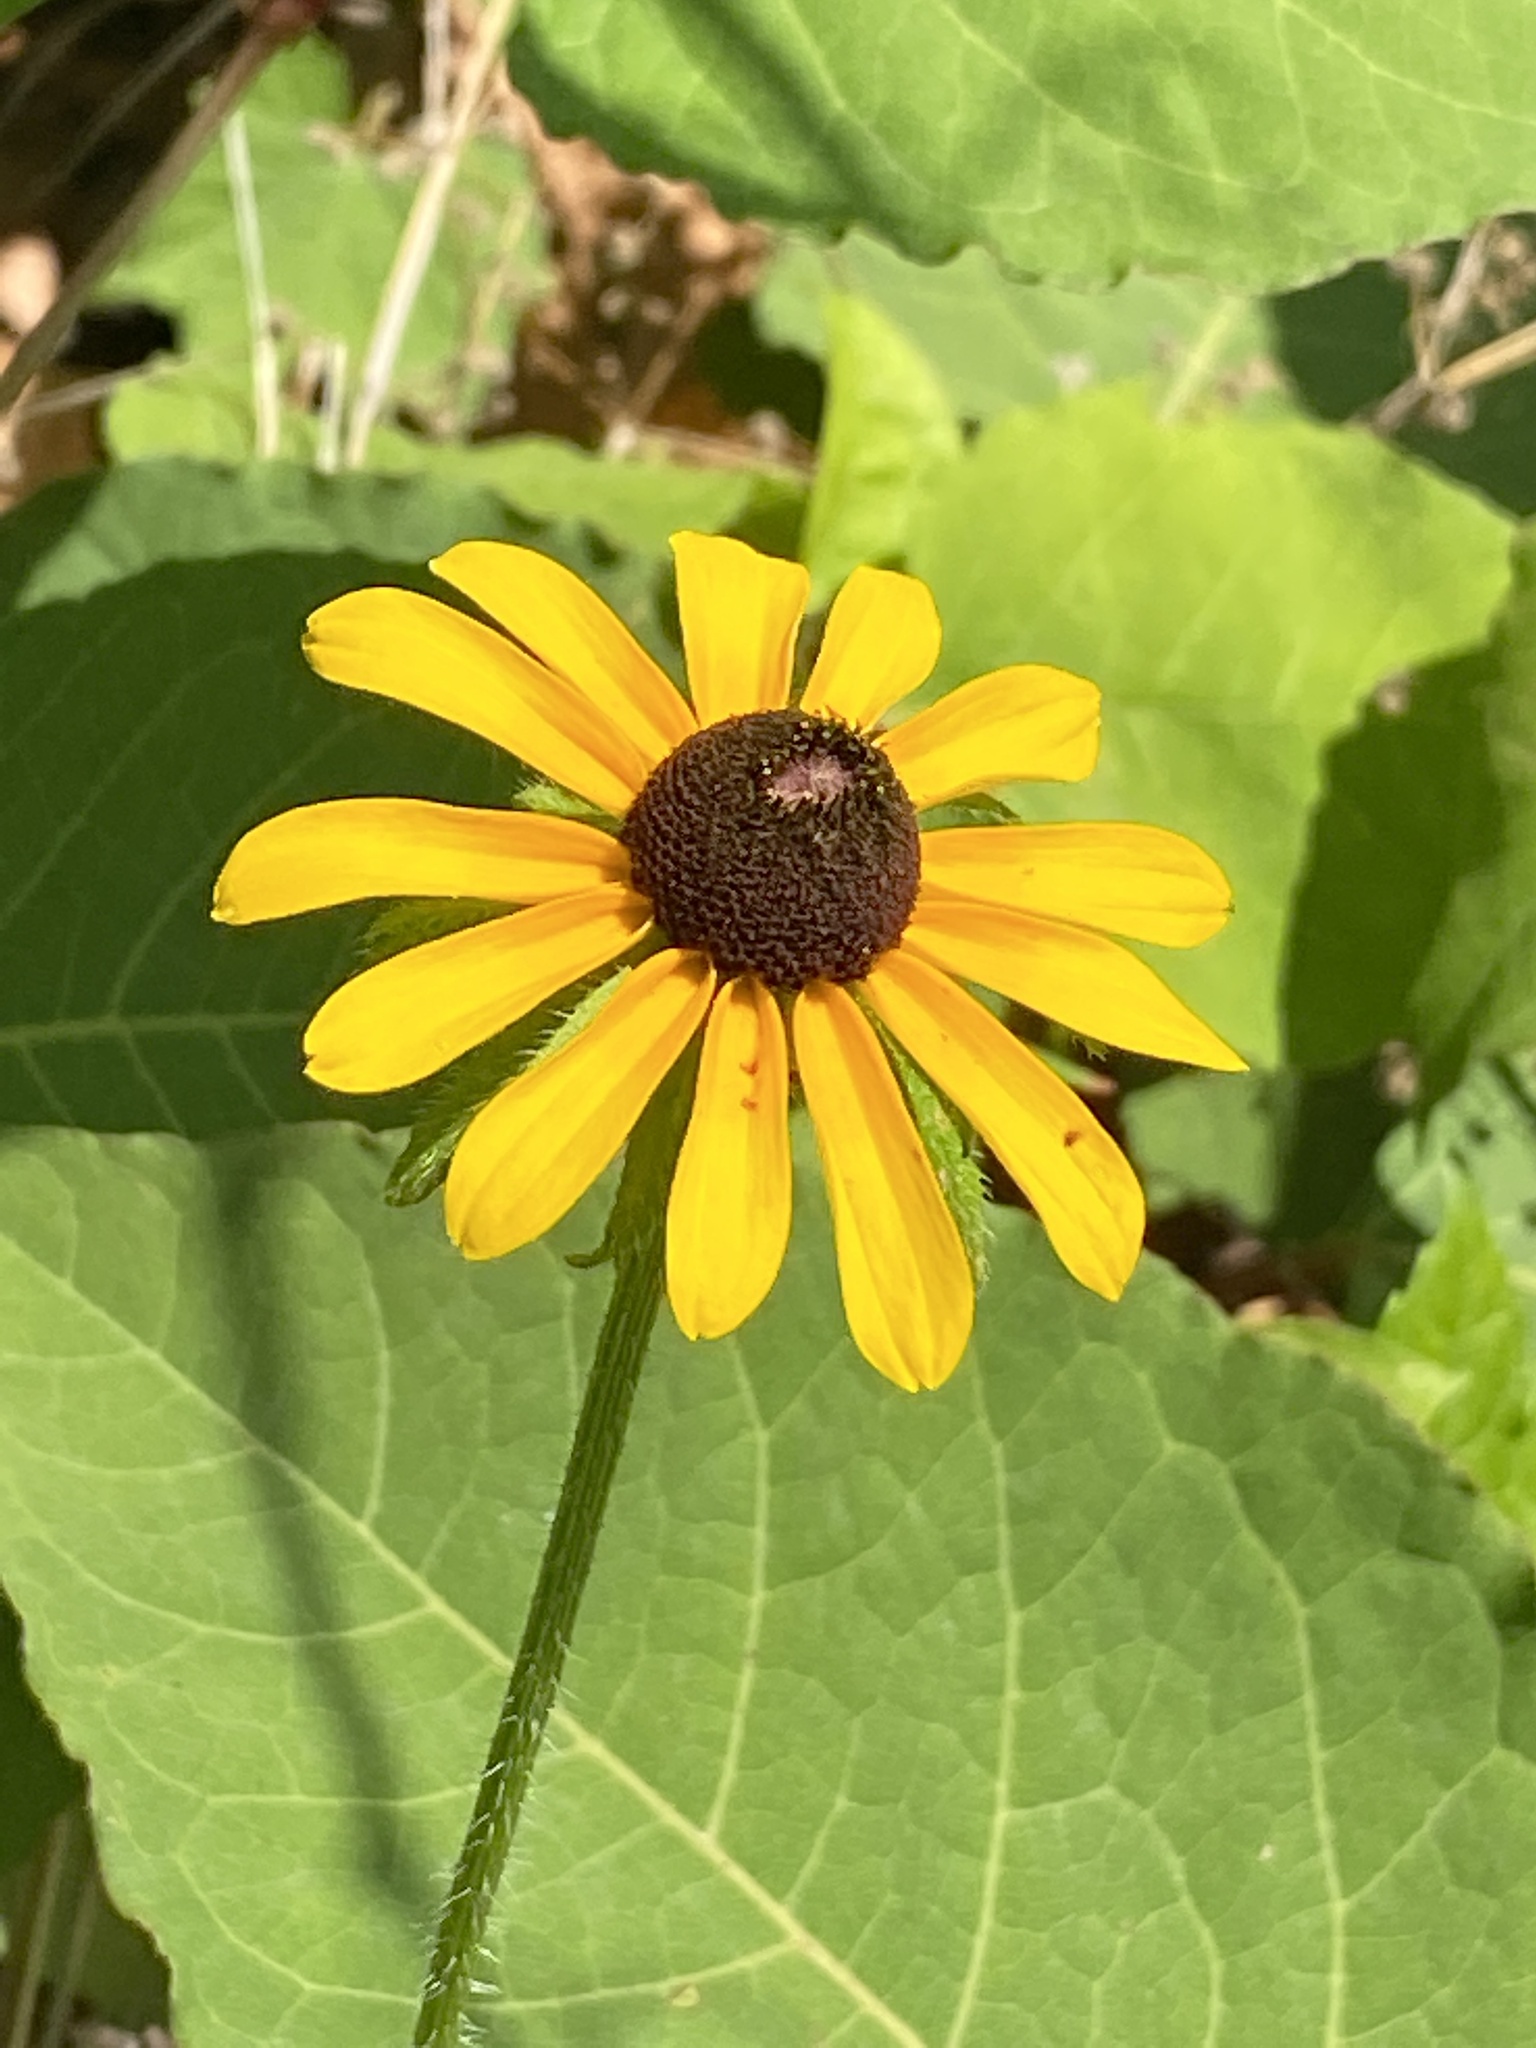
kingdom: Plantae
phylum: Tracheophyta
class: Magnoliopsida
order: Asterales
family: Asteraceae
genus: Rudbeckia
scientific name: Rudbeckia hirta
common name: Black-eyed-susan
